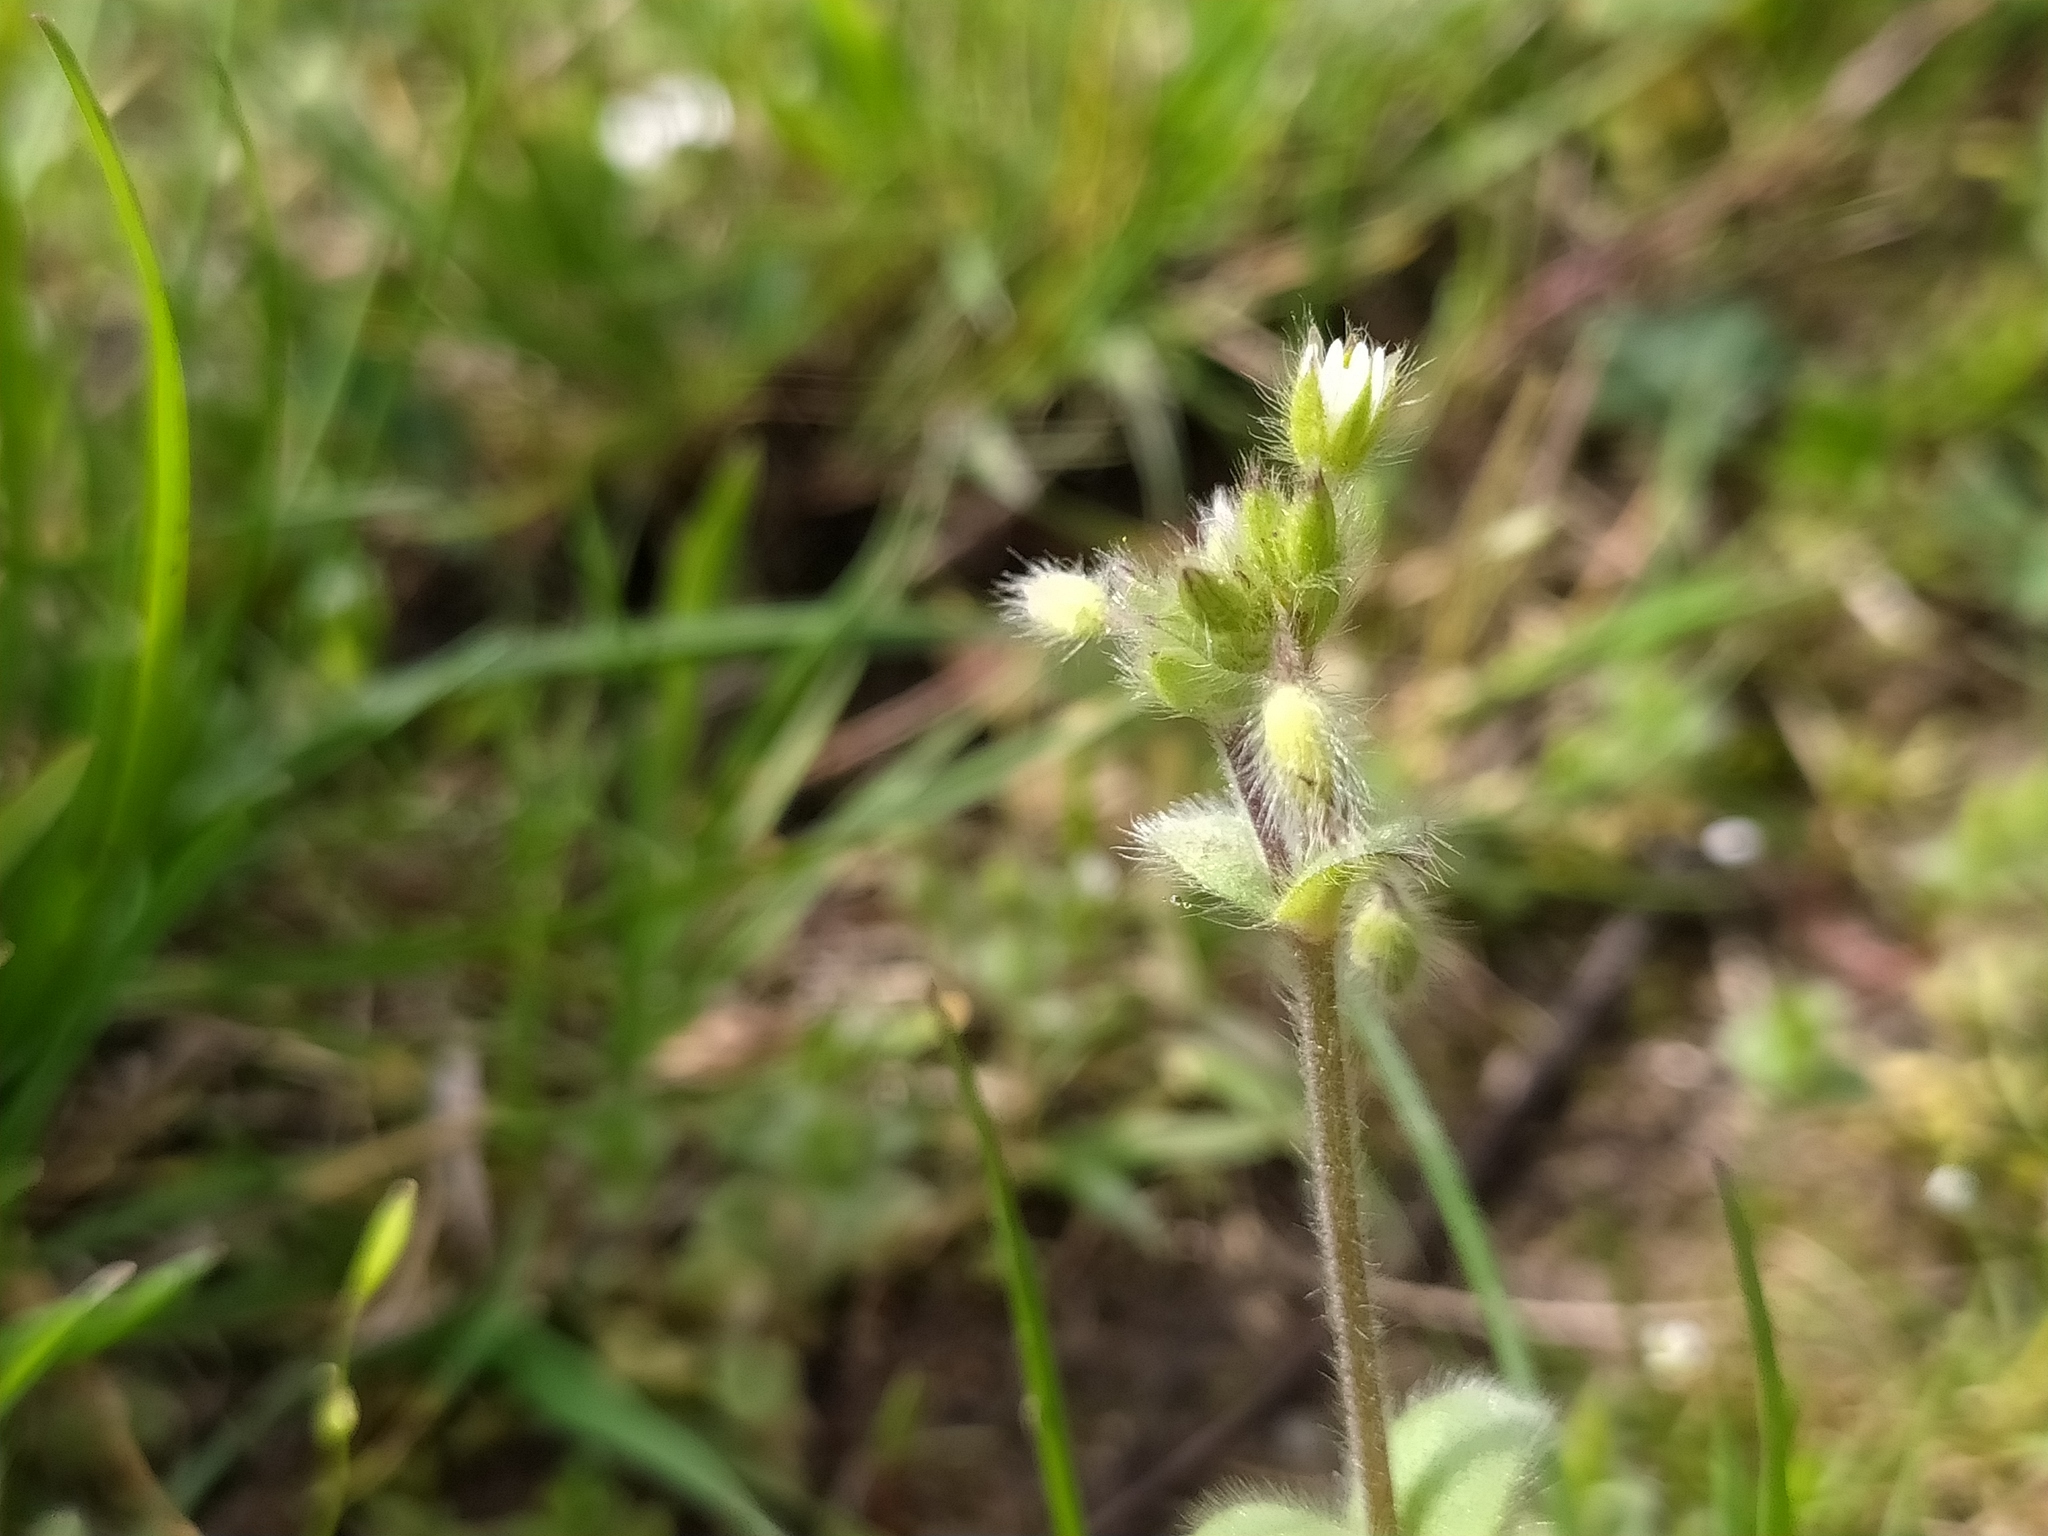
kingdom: Plantae
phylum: Tracheophyta
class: Magnoliopsida
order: Caryophyllales
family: Caryophyllaceae
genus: Cerastium
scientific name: Cerastium brachypetalum
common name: Grey mouse-ear
